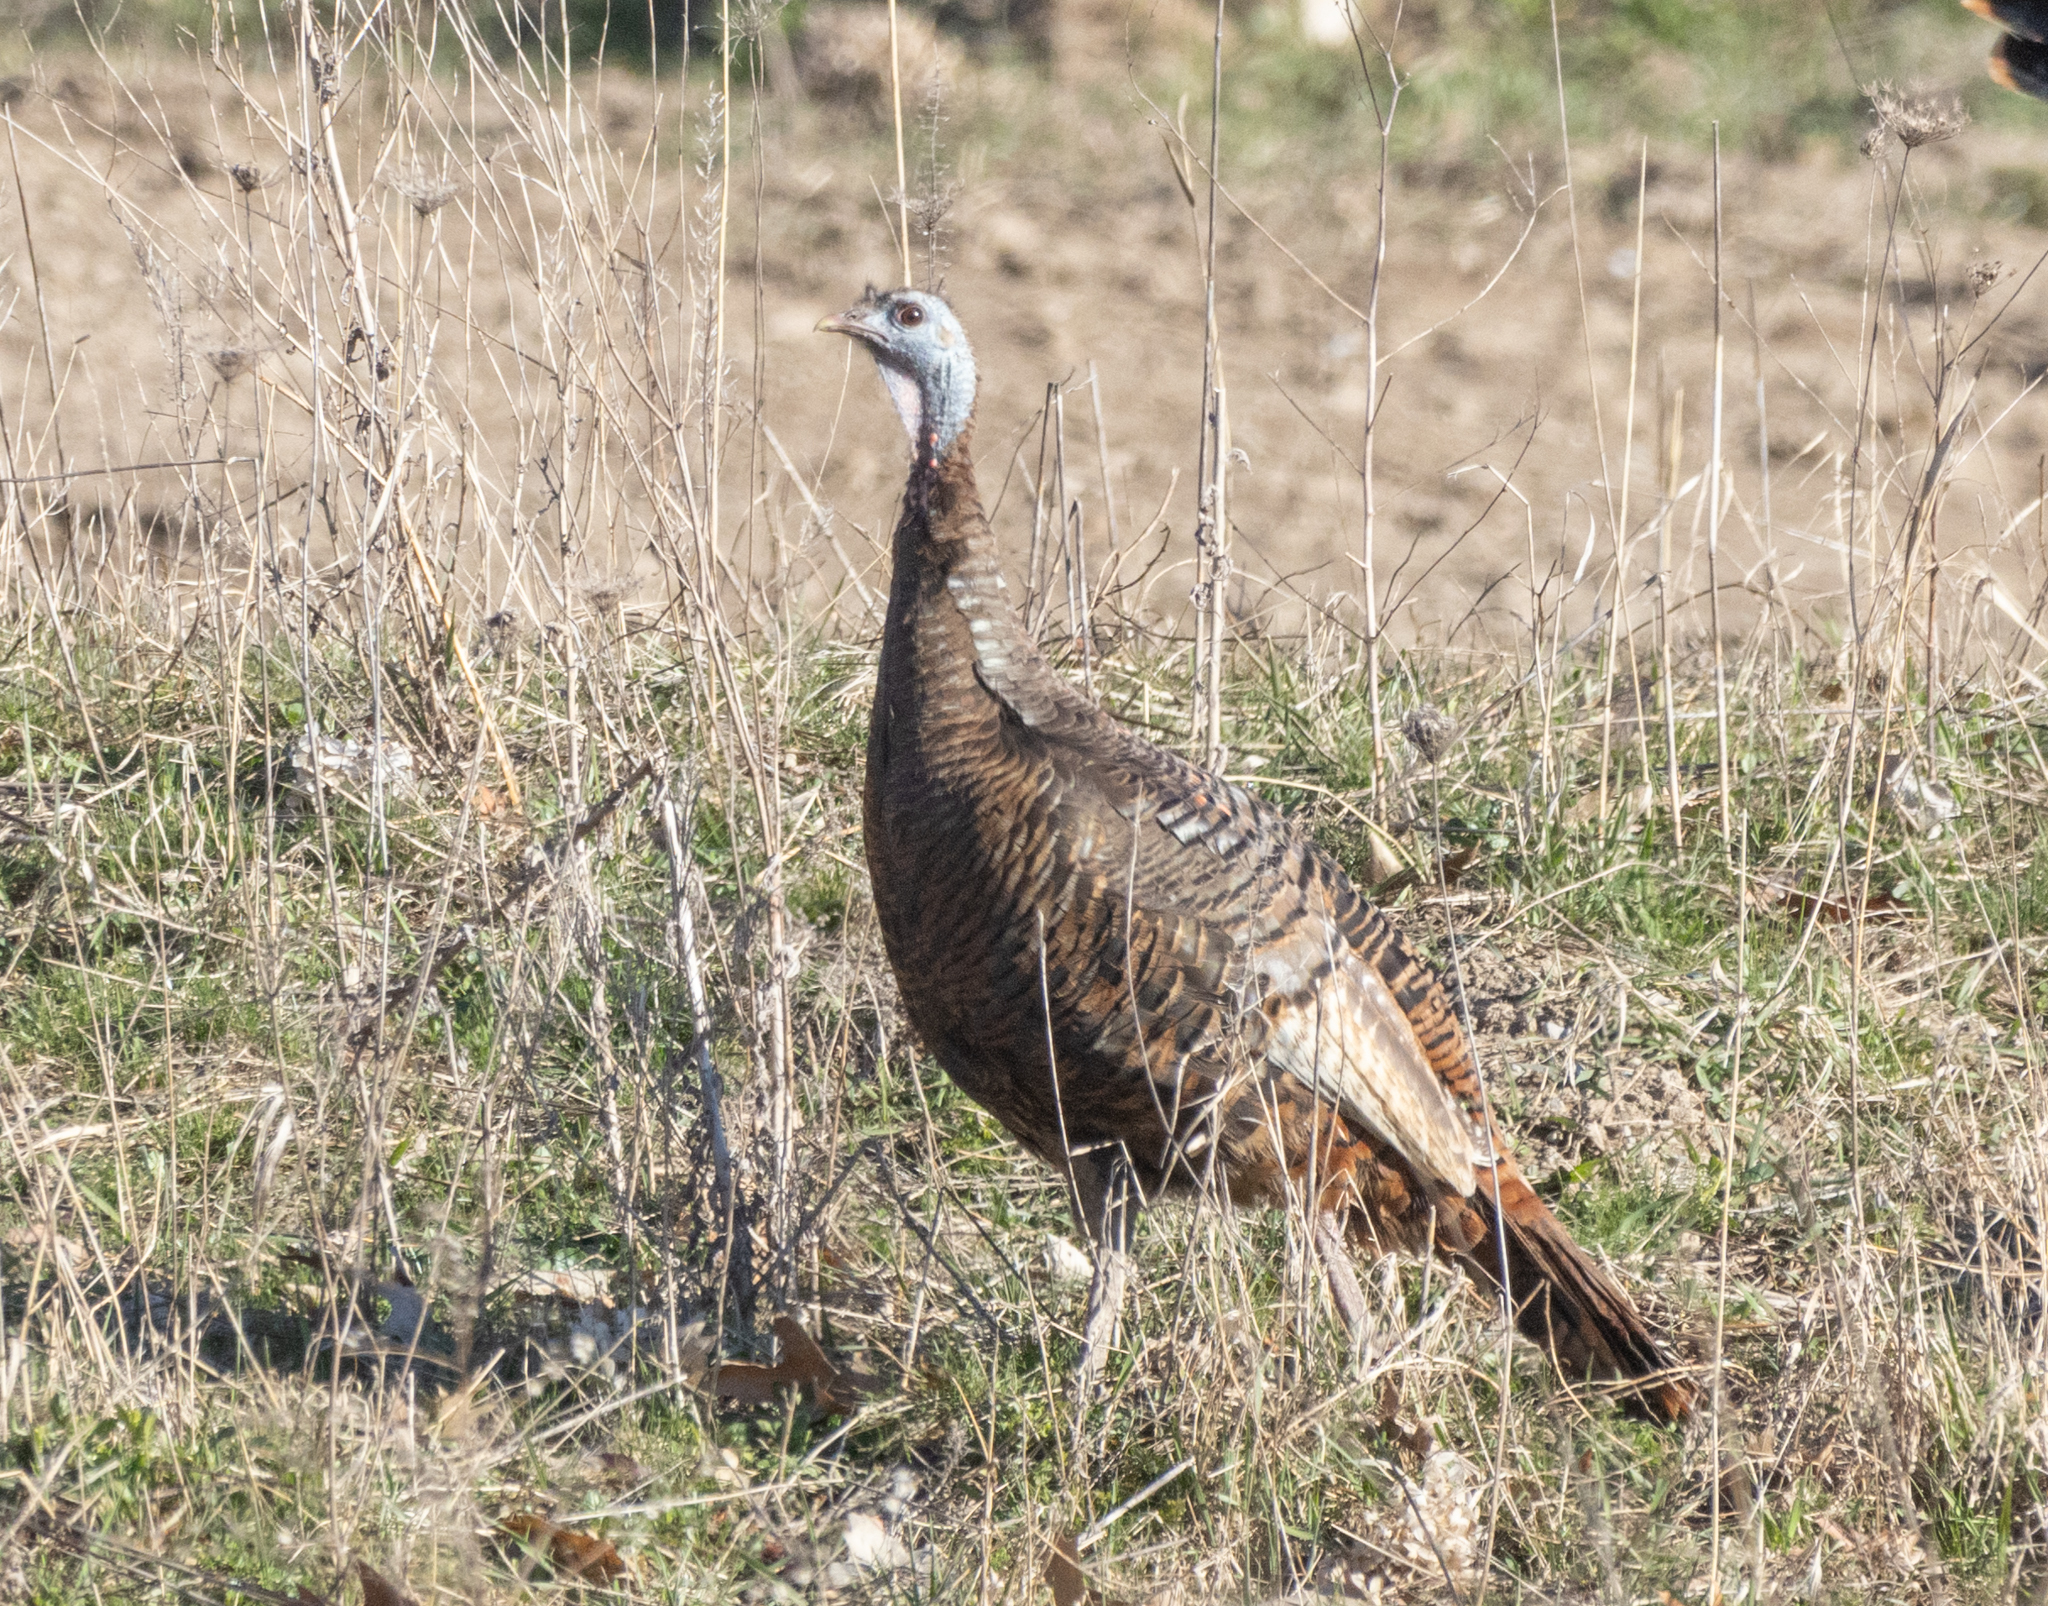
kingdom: Animalia
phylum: Chordata
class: Aves
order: Galliformes
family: Phasianidae
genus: Meleagris
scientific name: Meleagris gallopavo
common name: Wild turkey
